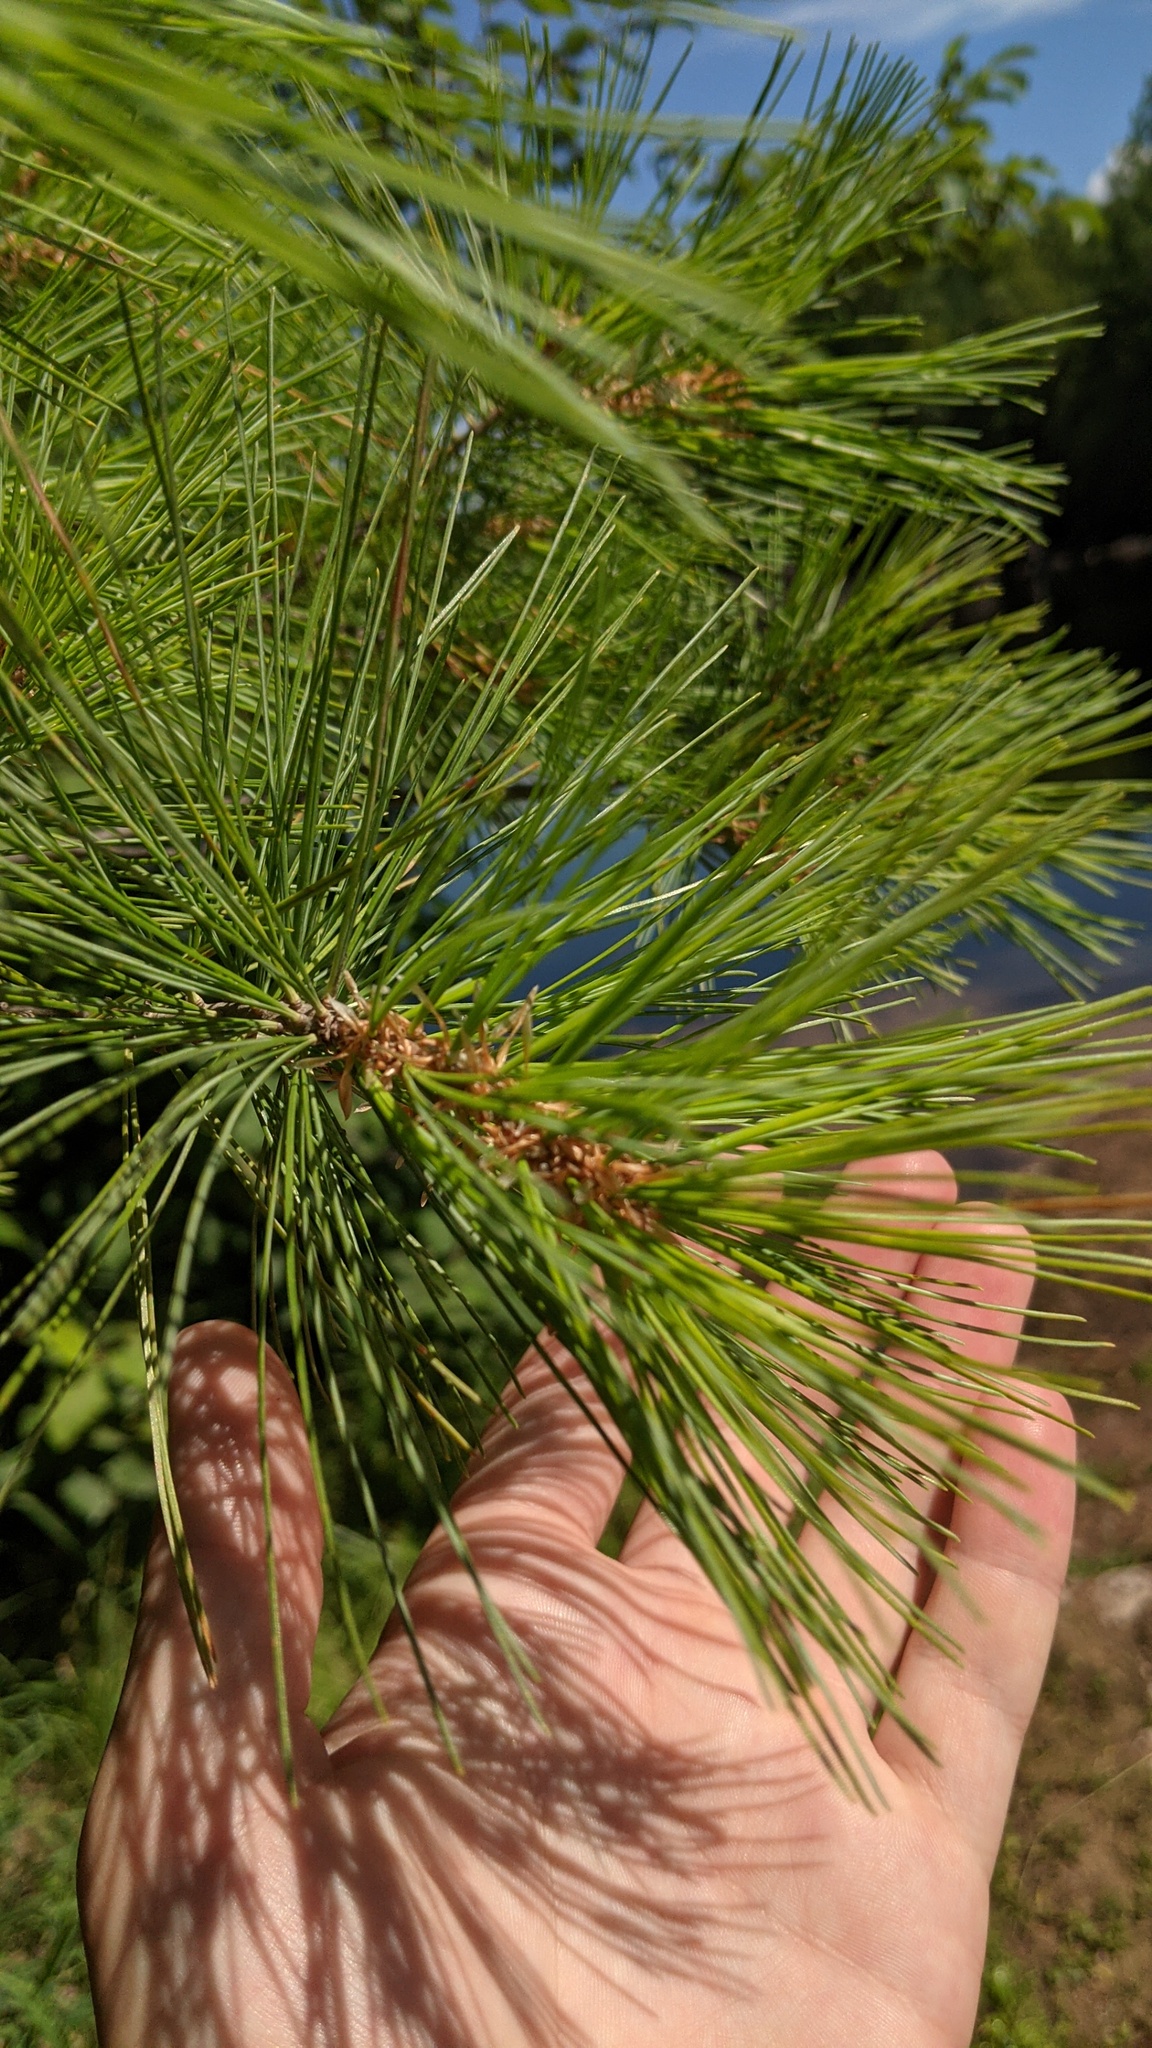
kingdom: Plantae
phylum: Tracheophyta
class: Pinopsida
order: Pinales
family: Pinaceae
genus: Pinus
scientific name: Pinus strobus
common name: Weymouth pine
